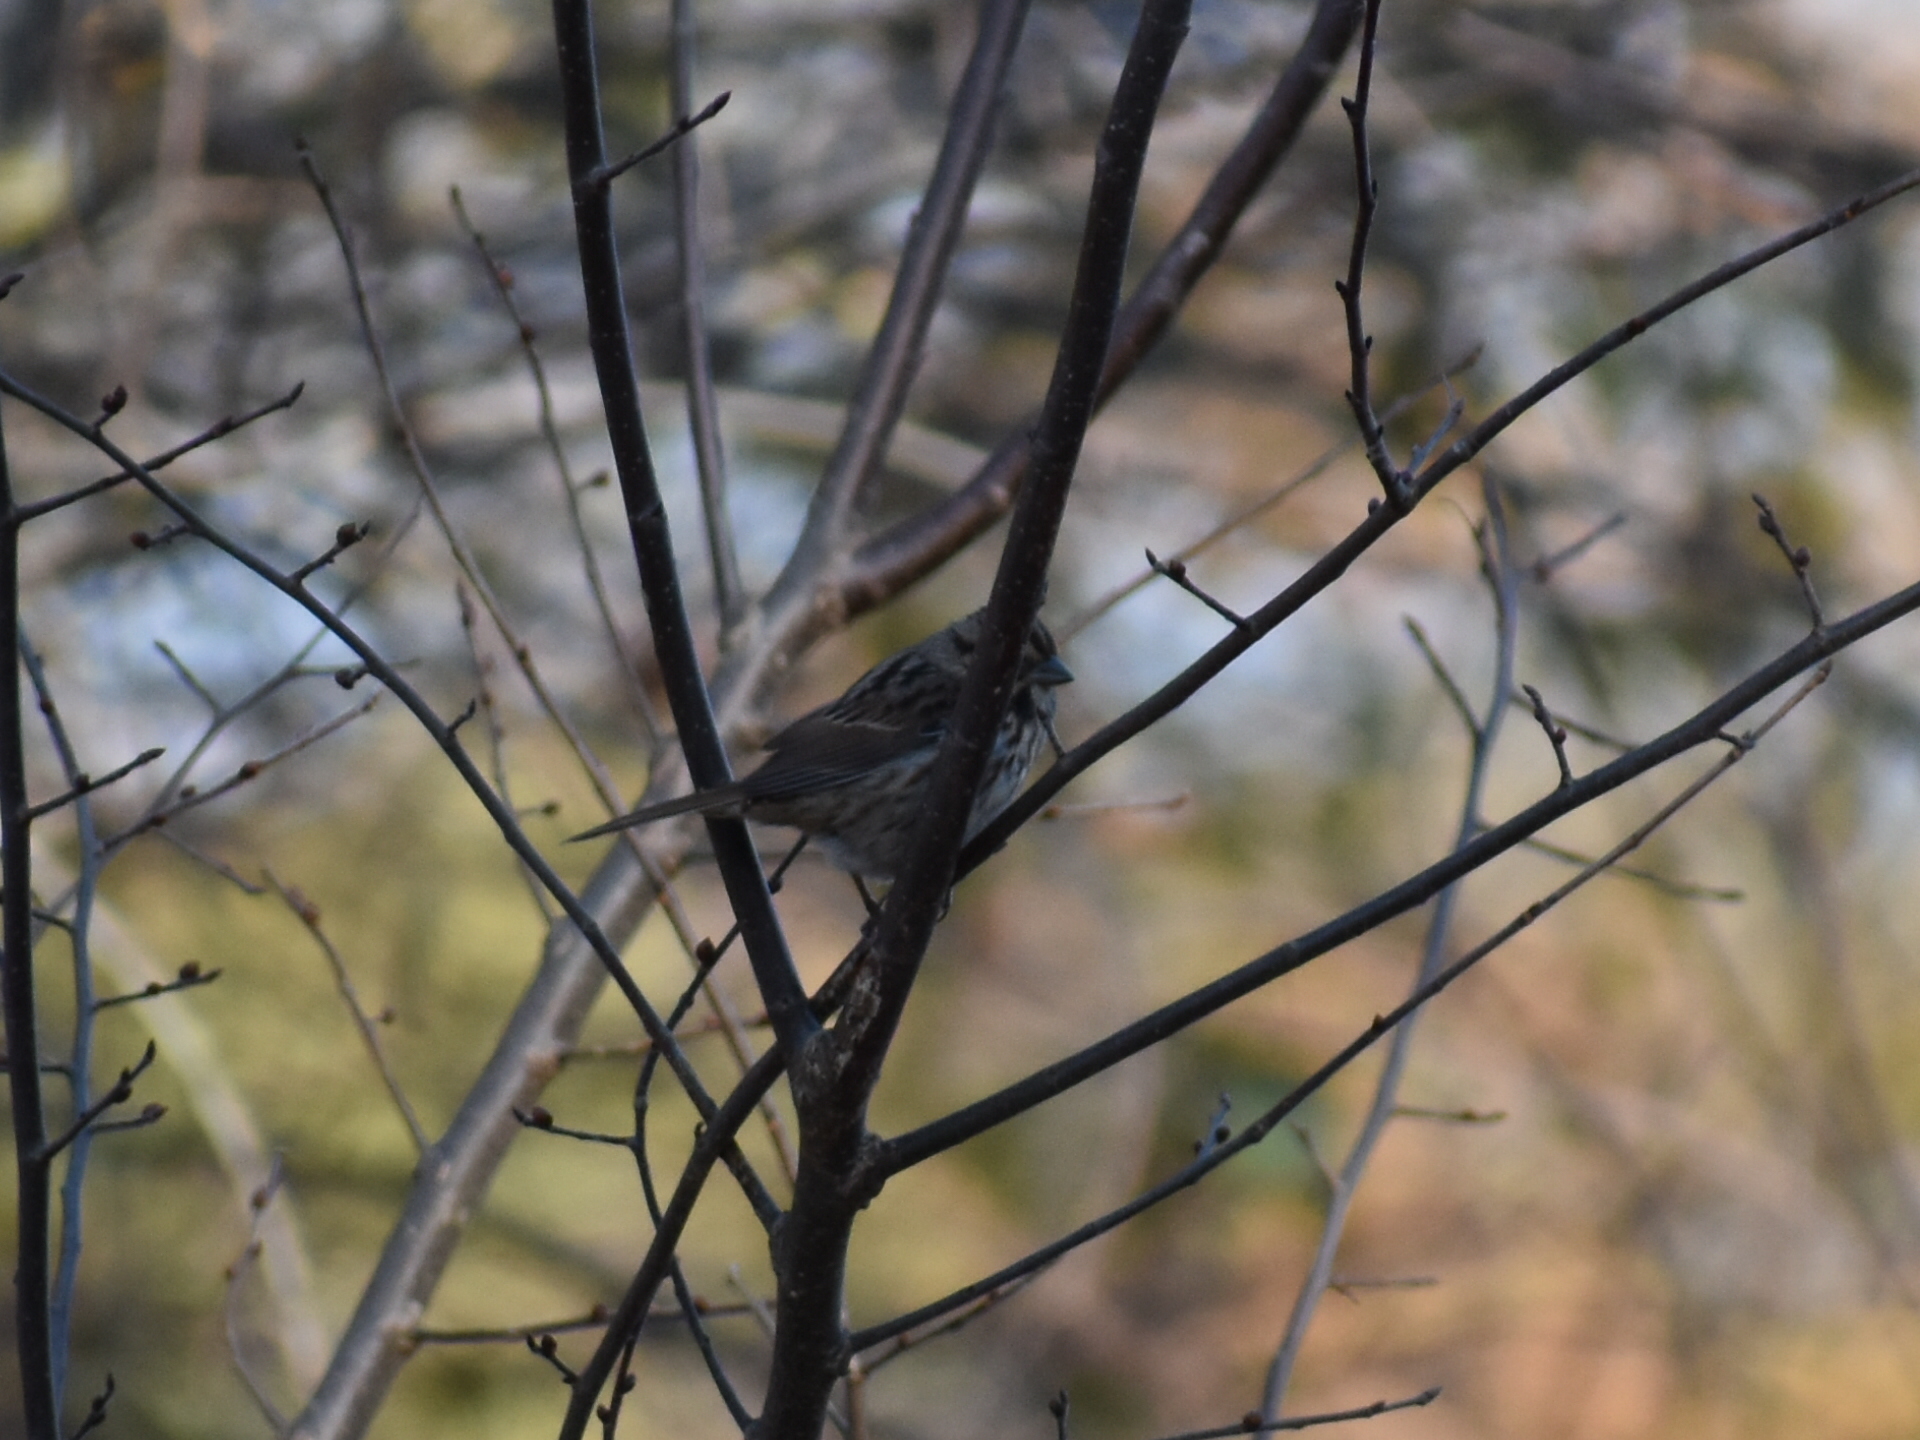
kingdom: Animalia
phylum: Chordata
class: Aves
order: Passeriformes
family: Passerellidae
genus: Melospiza
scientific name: Melospiza melodia
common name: Song sparrow
